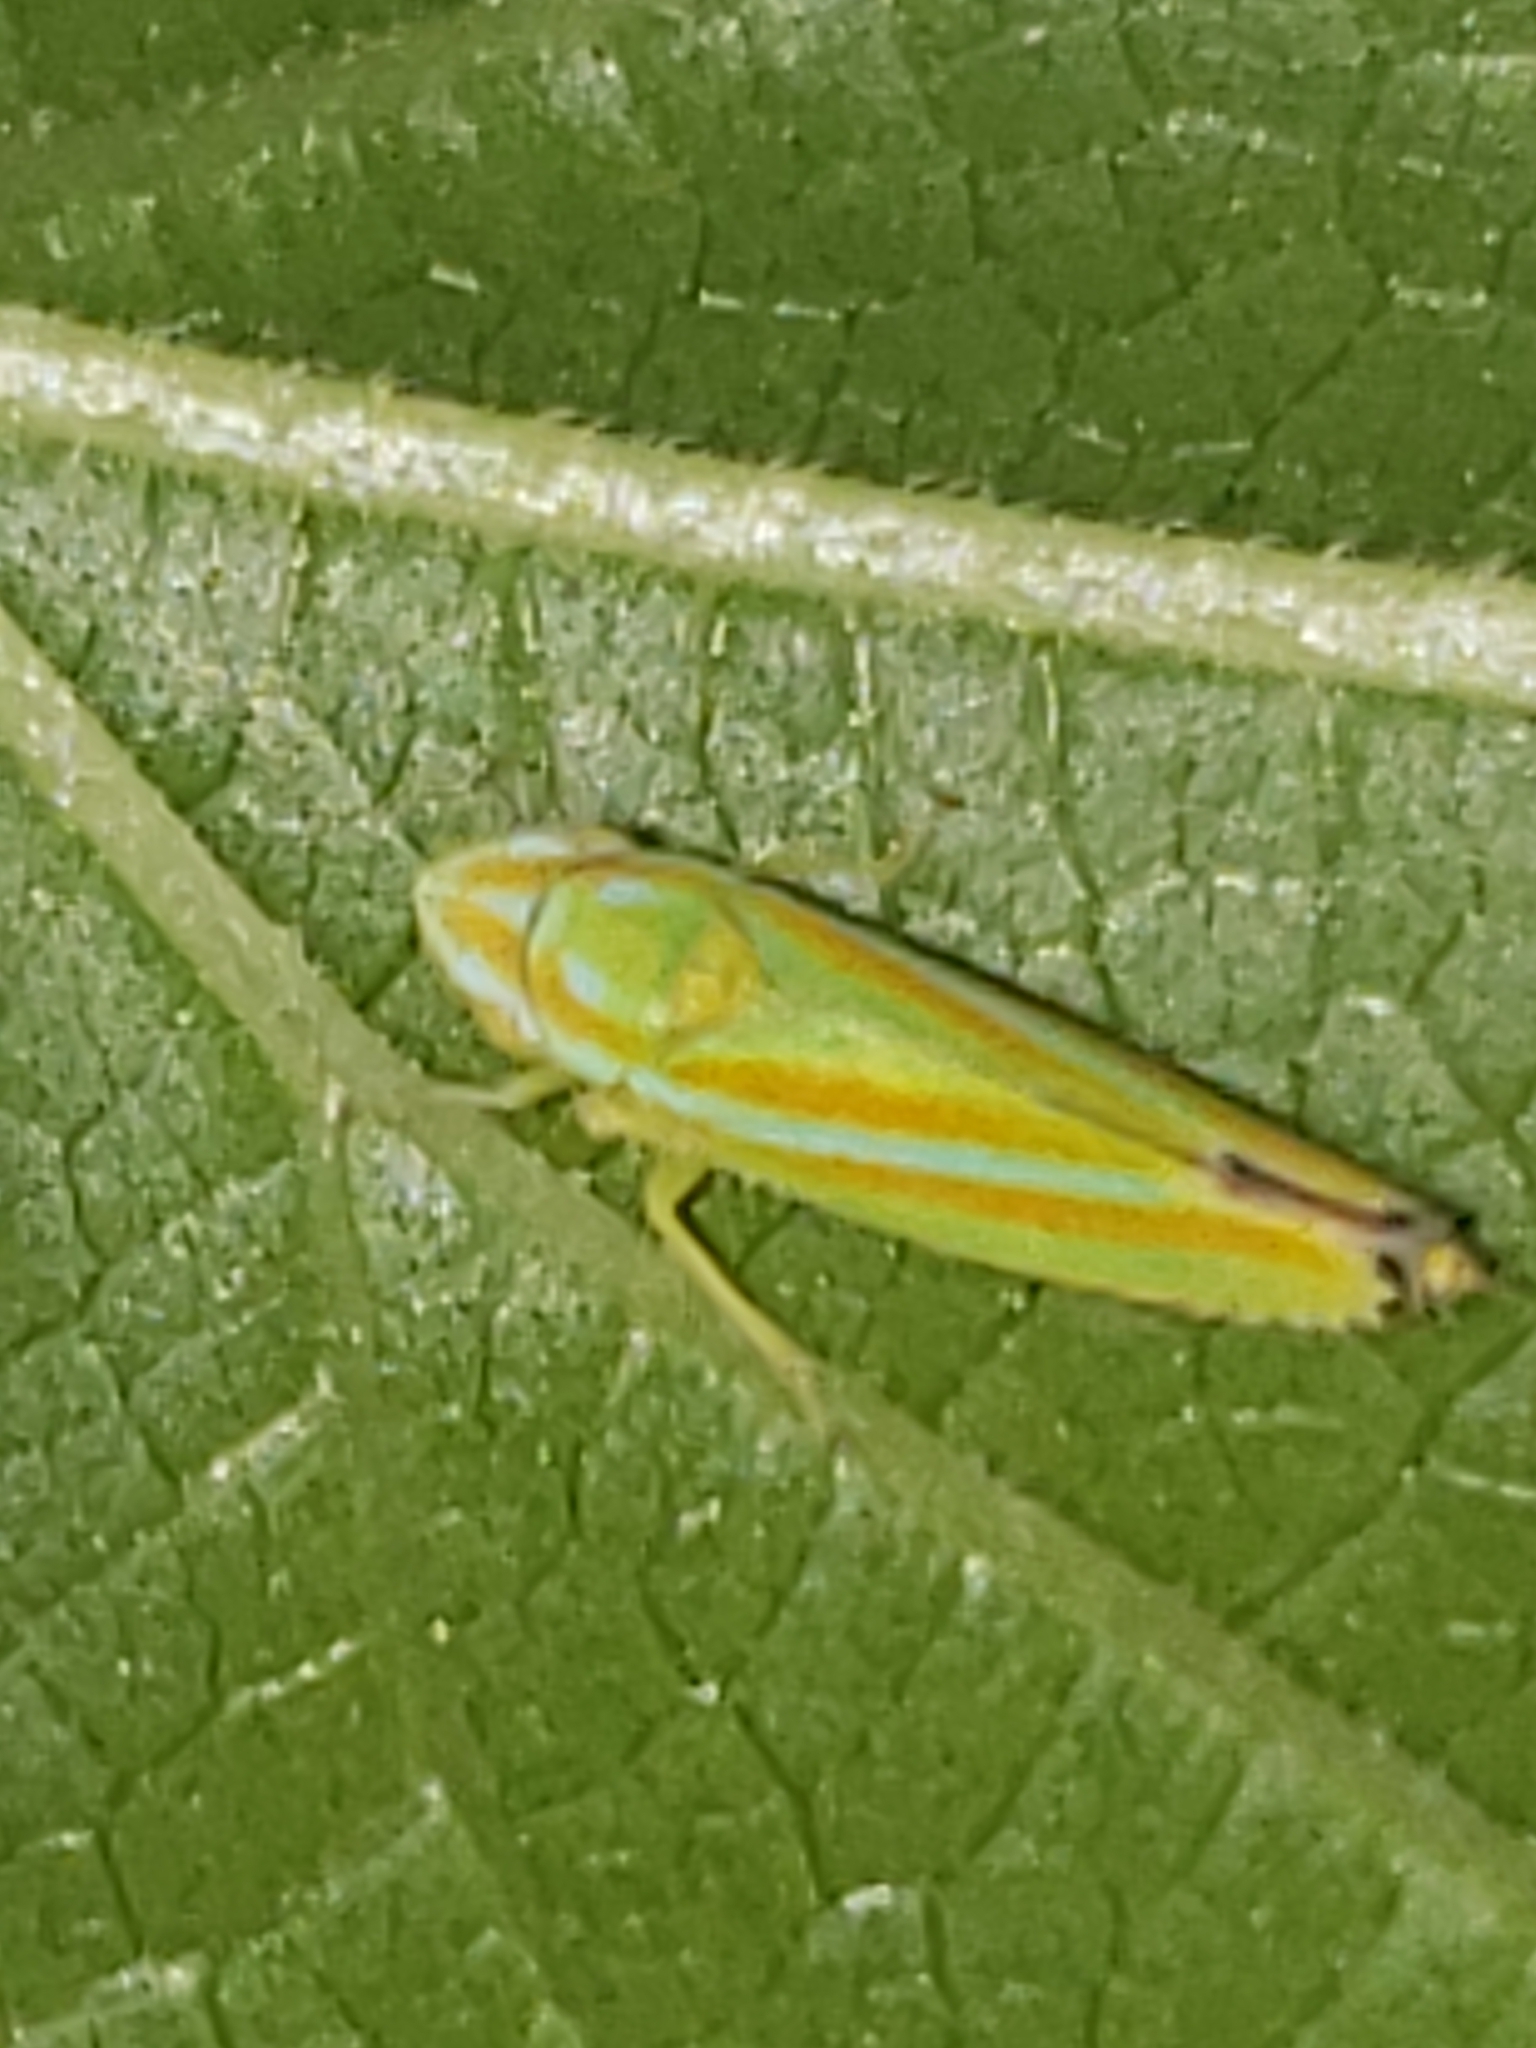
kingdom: Animalia
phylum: Arthropoda
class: Insecta
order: Hemiptera
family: Cicadellidae
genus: Graphocephala
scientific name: Graphocephala versuta
